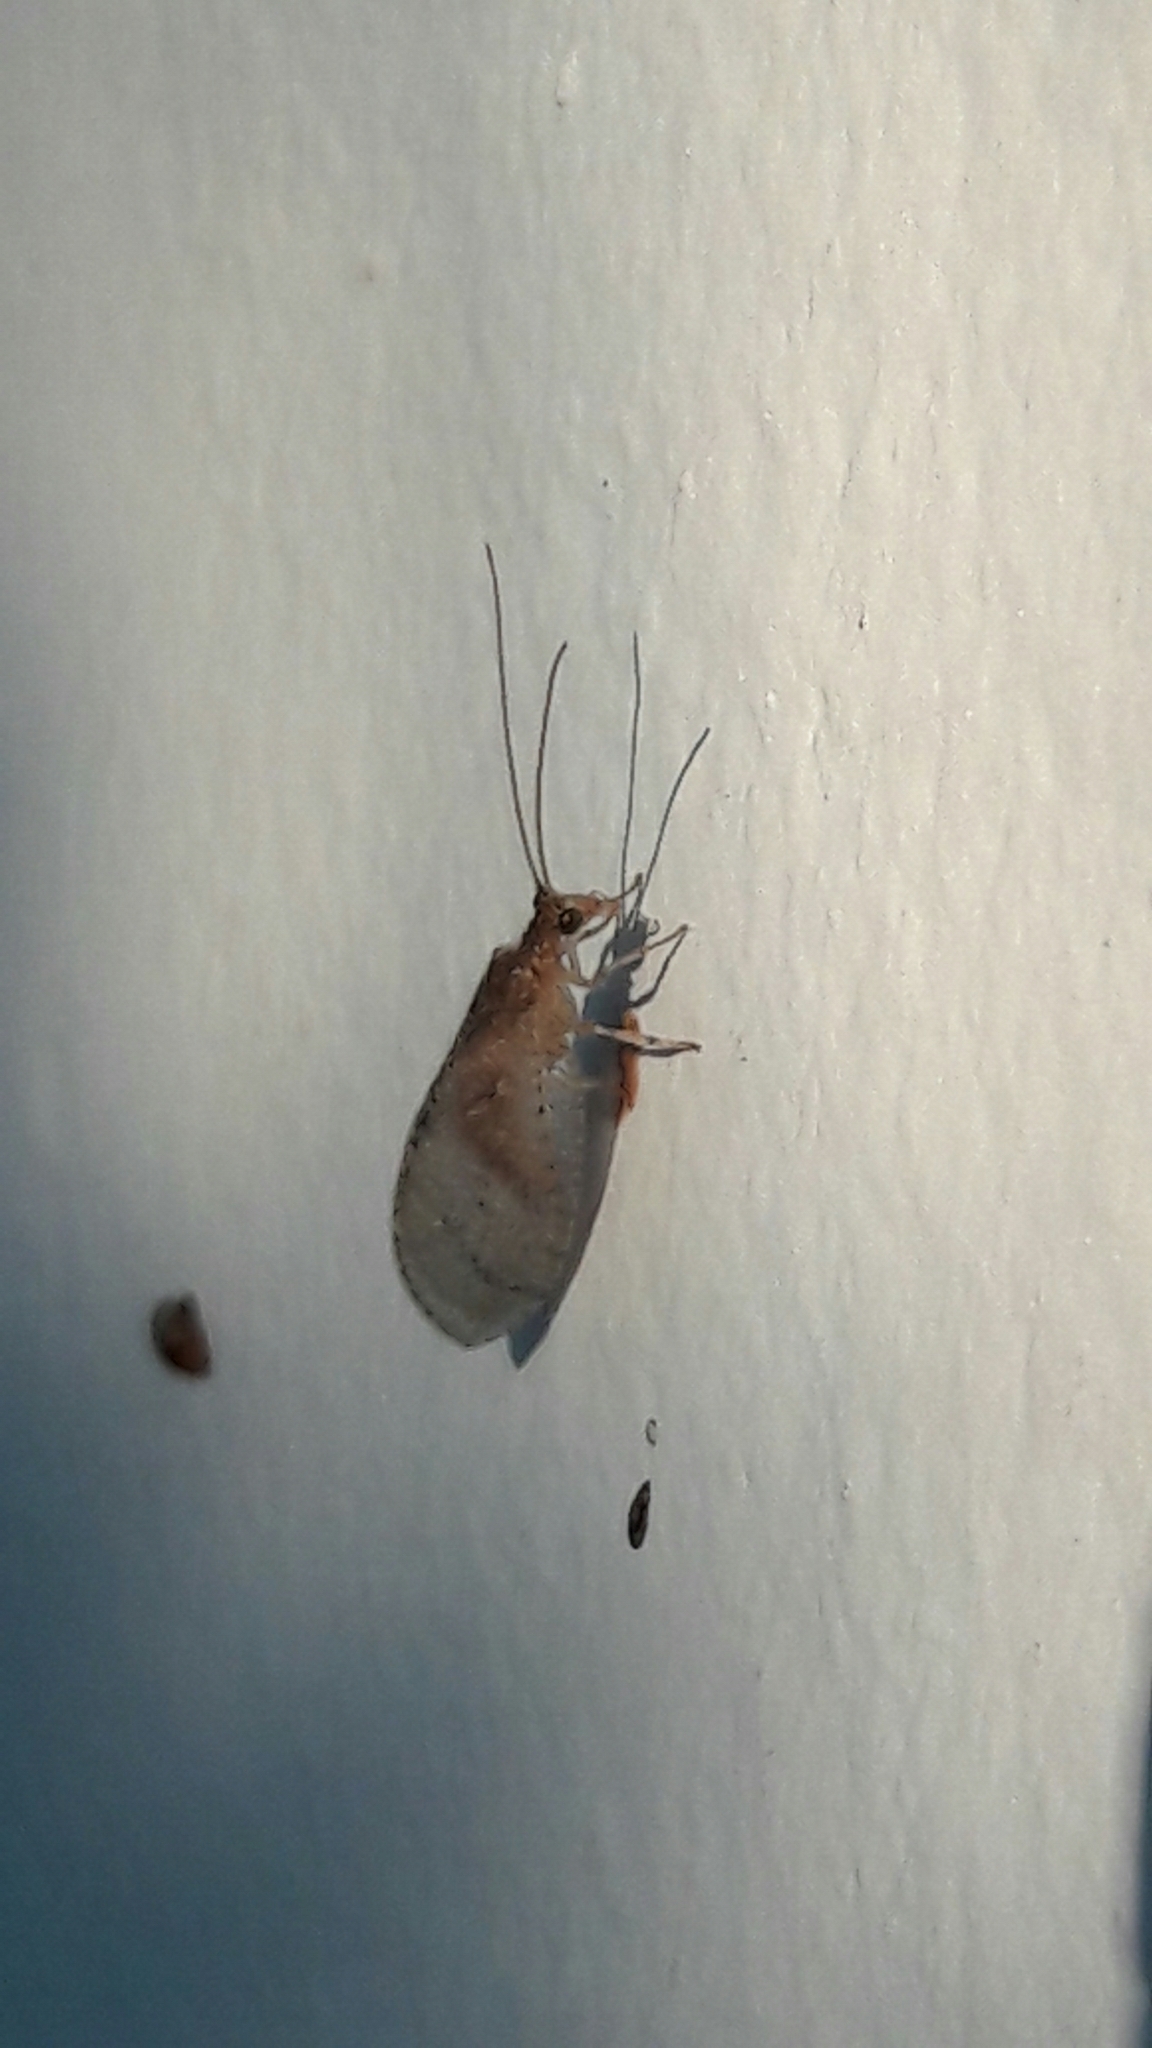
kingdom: Animalia
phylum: Arthropoda
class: Insecta
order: Neuroptera
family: Hemerobiidae
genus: Nusalala
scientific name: Nusalala tessellata
